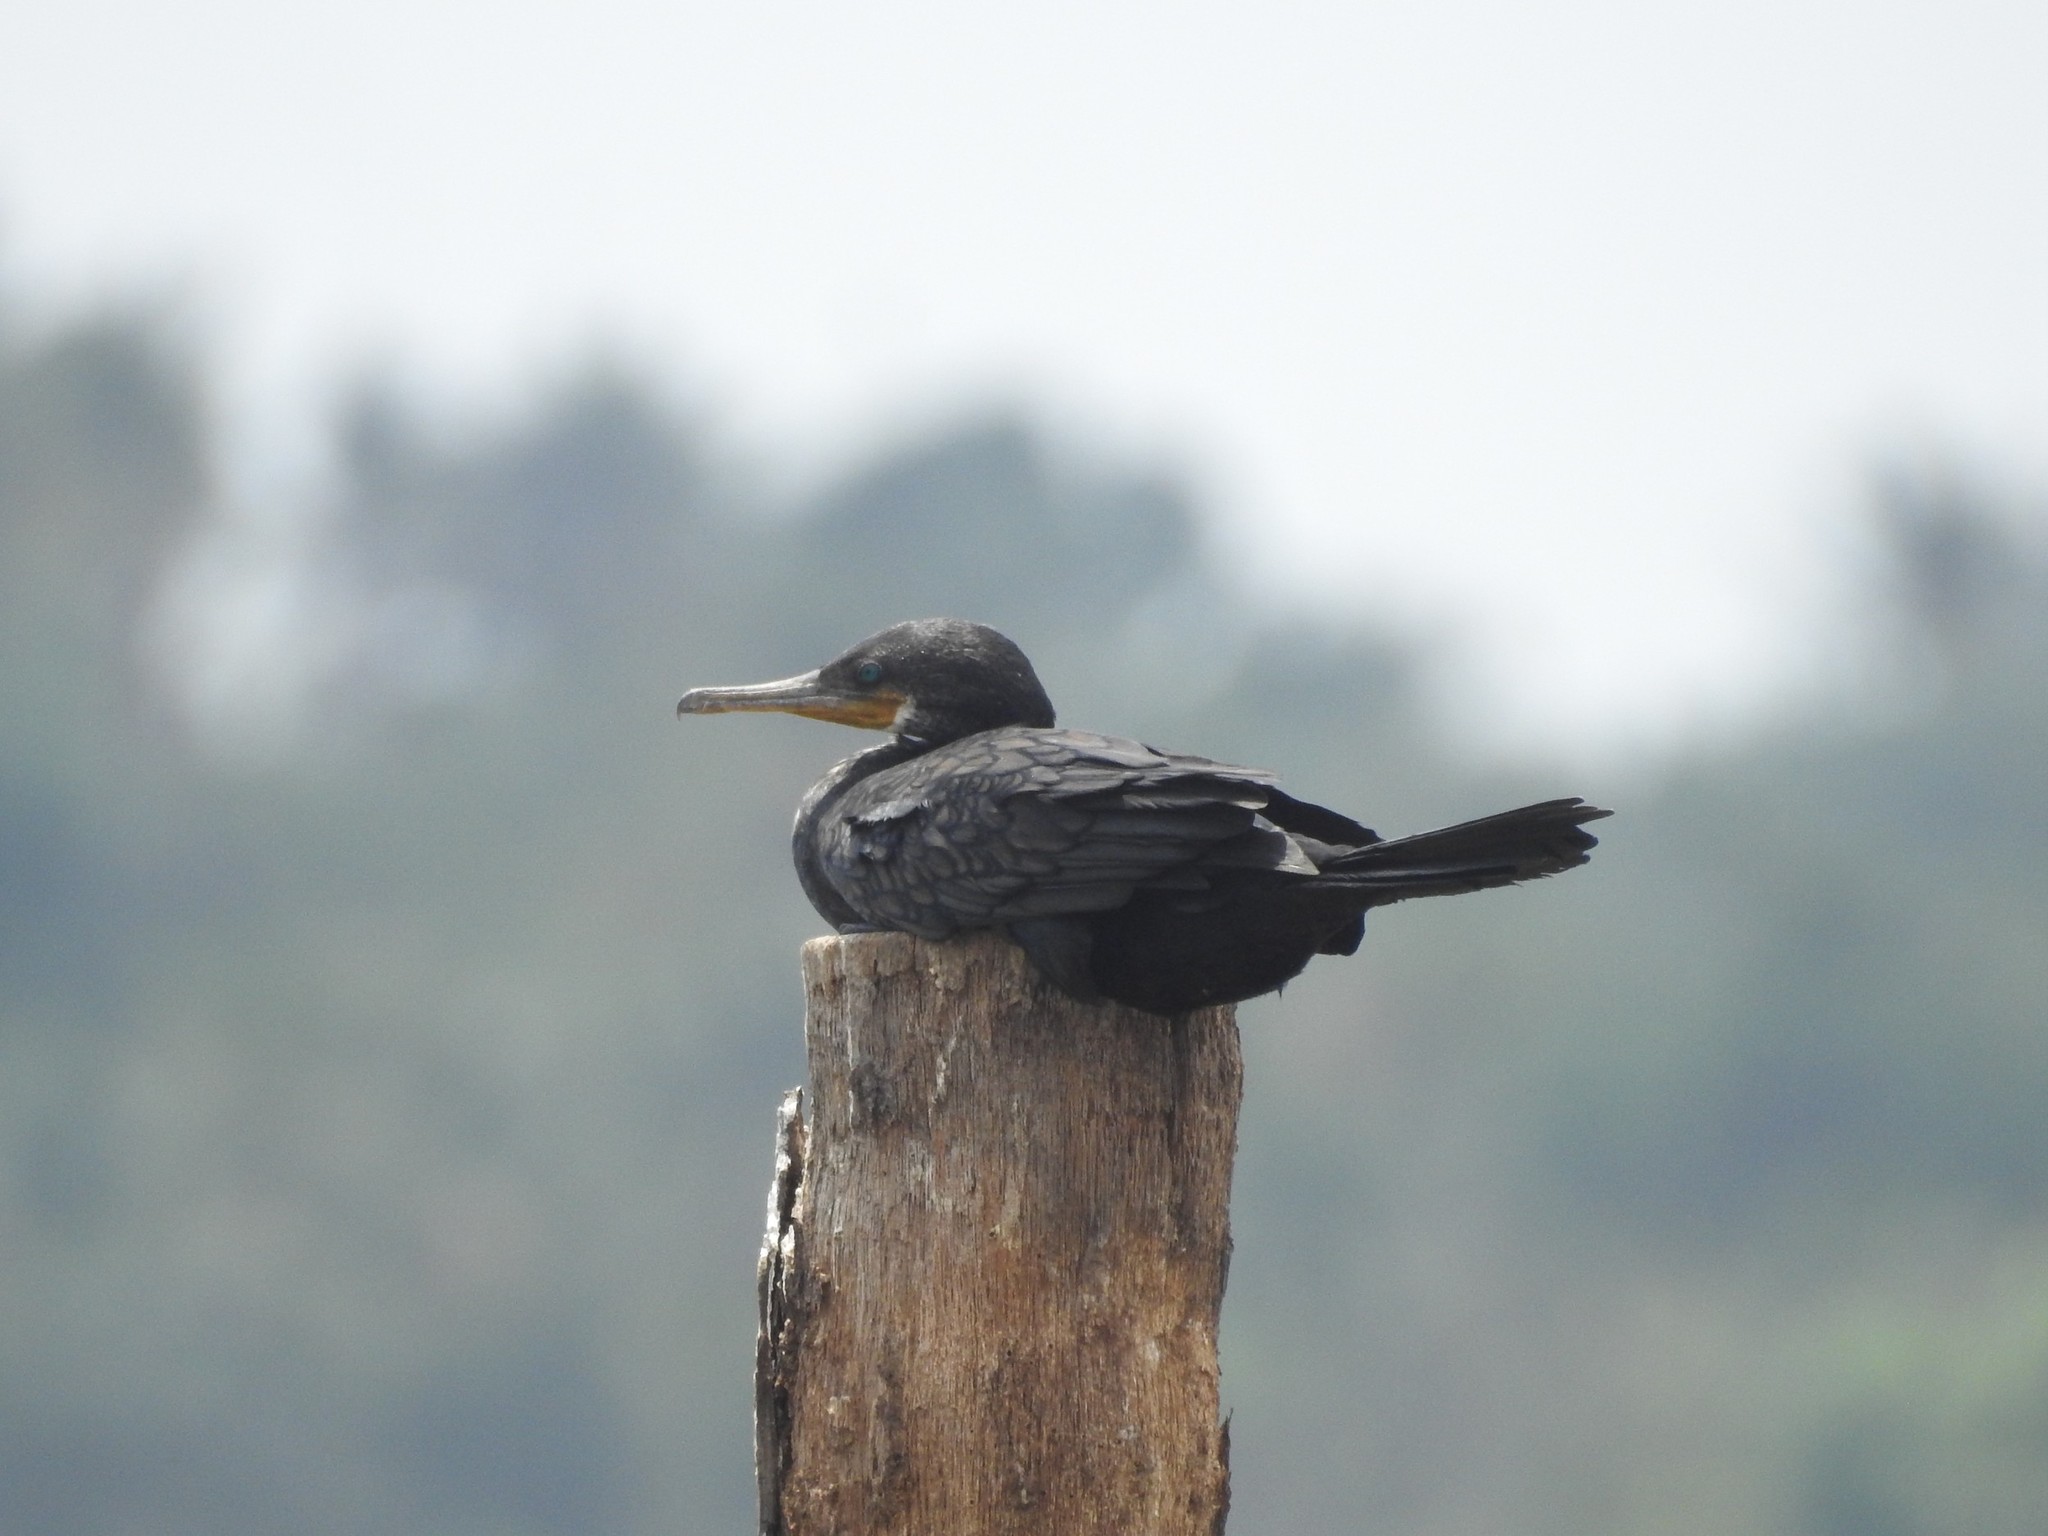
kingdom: Animalia
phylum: Chordata
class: Aves
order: Suliformes
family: Phalacrocoracidae
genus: Phalacrocorax
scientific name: Phalacrocorax fuscicollis
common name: Indian cormorant
